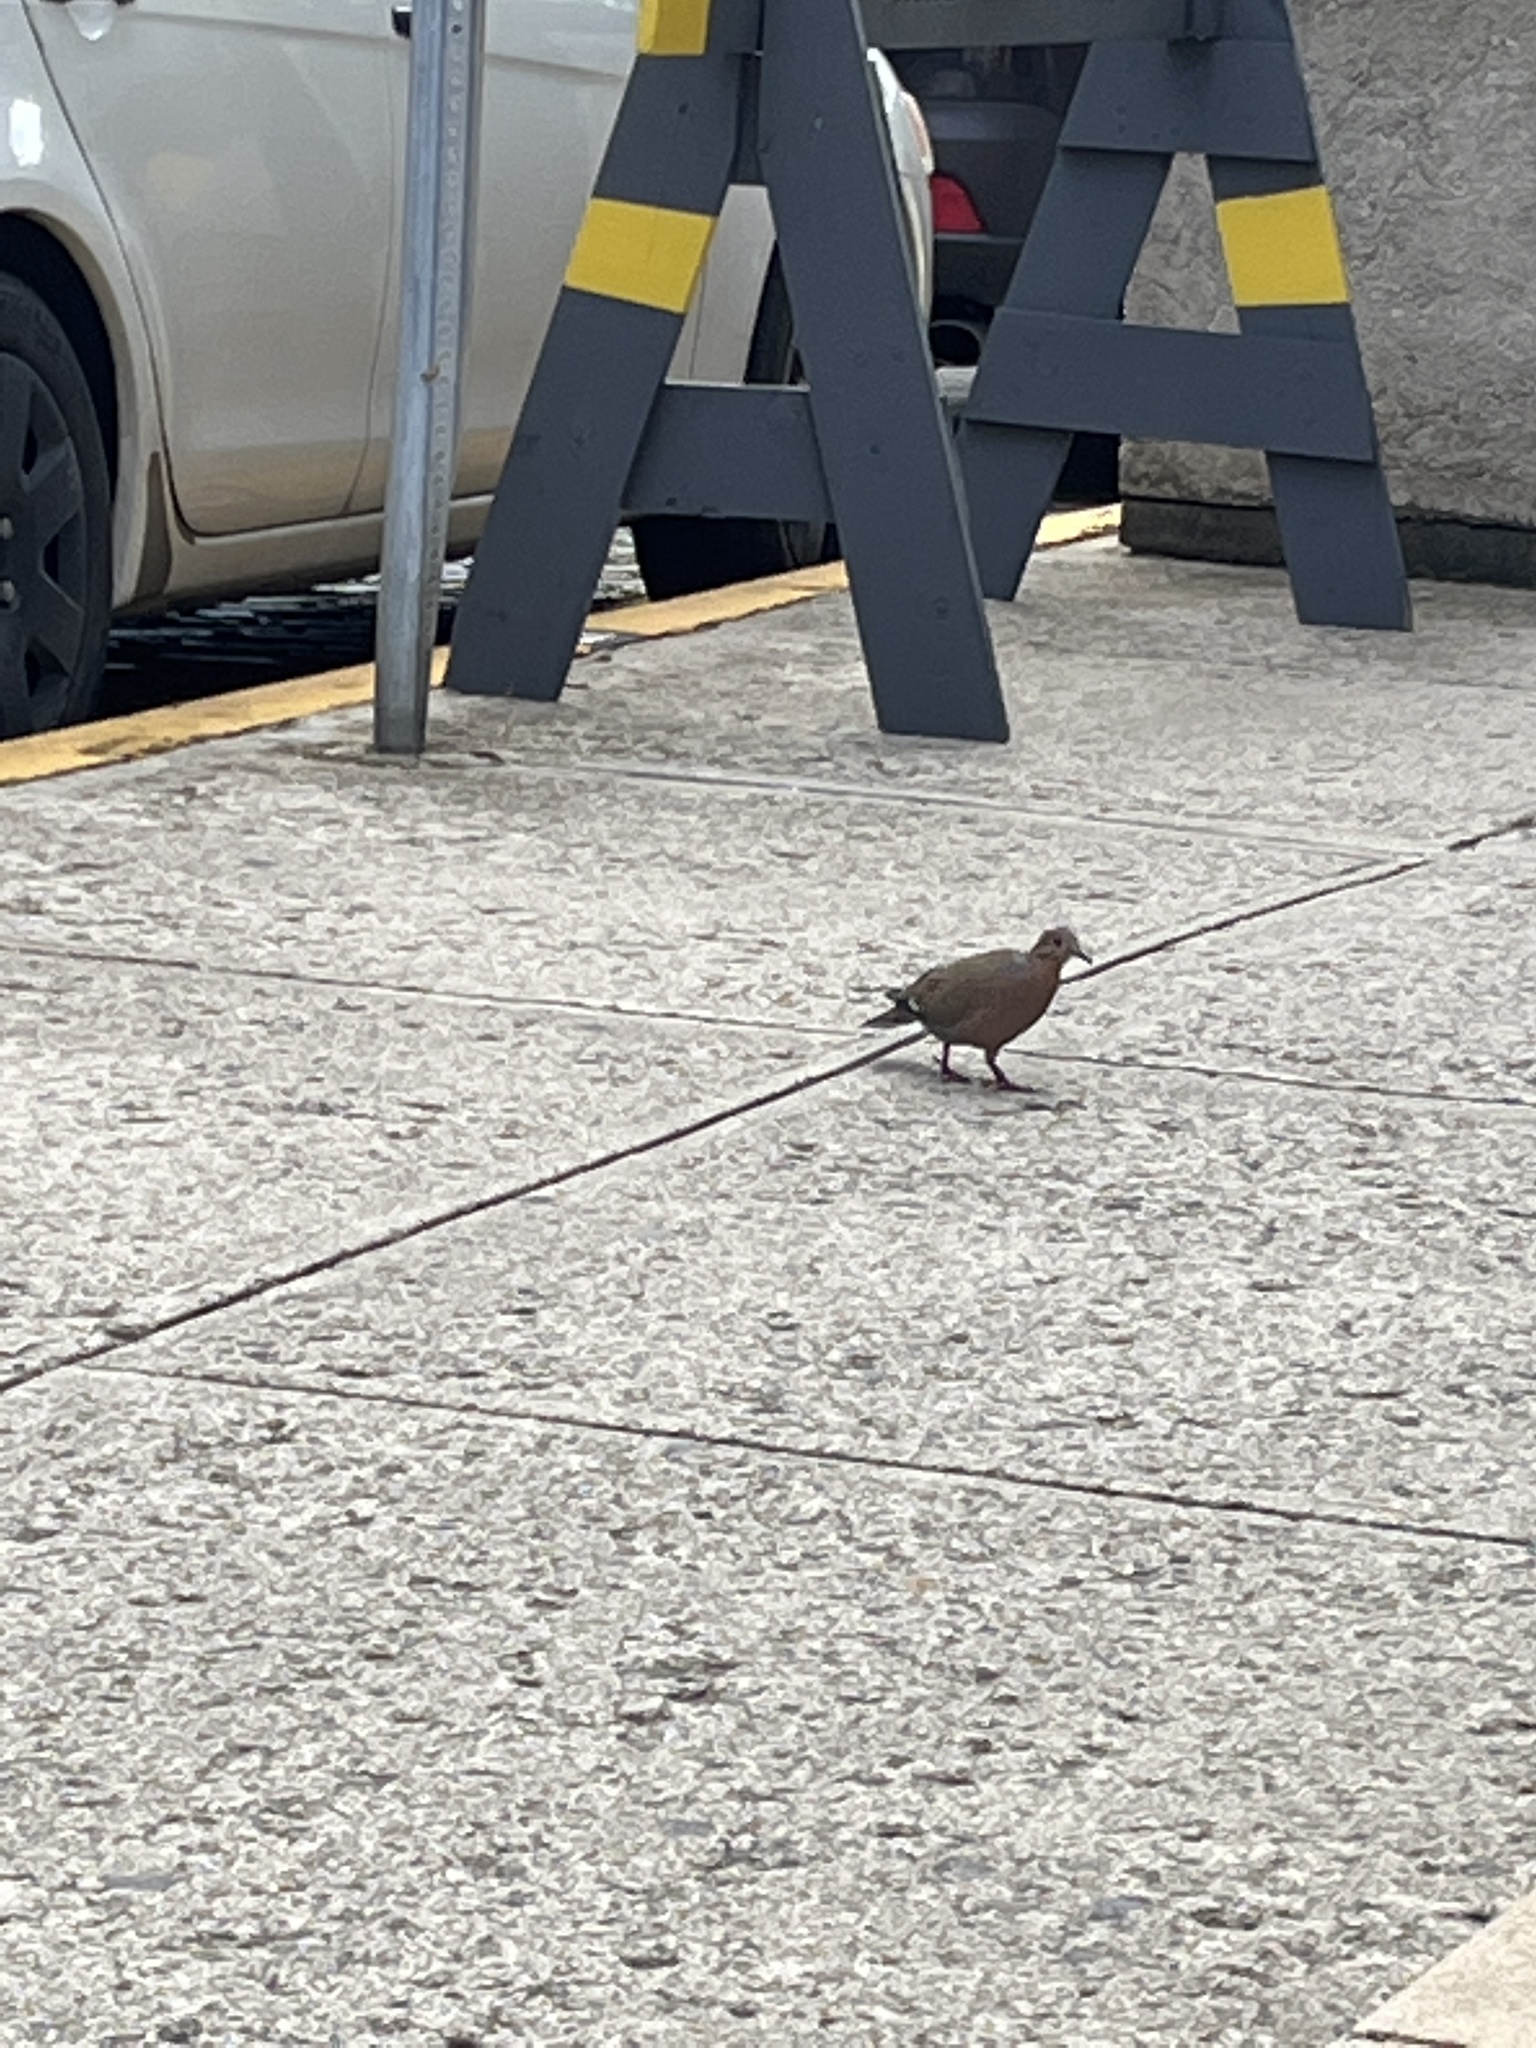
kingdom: Animalia
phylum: Chordata
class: Aves
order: Columbiformes
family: Columbidae
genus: Zenaida
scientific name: Zenaida aurita
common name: Zenaida dove
